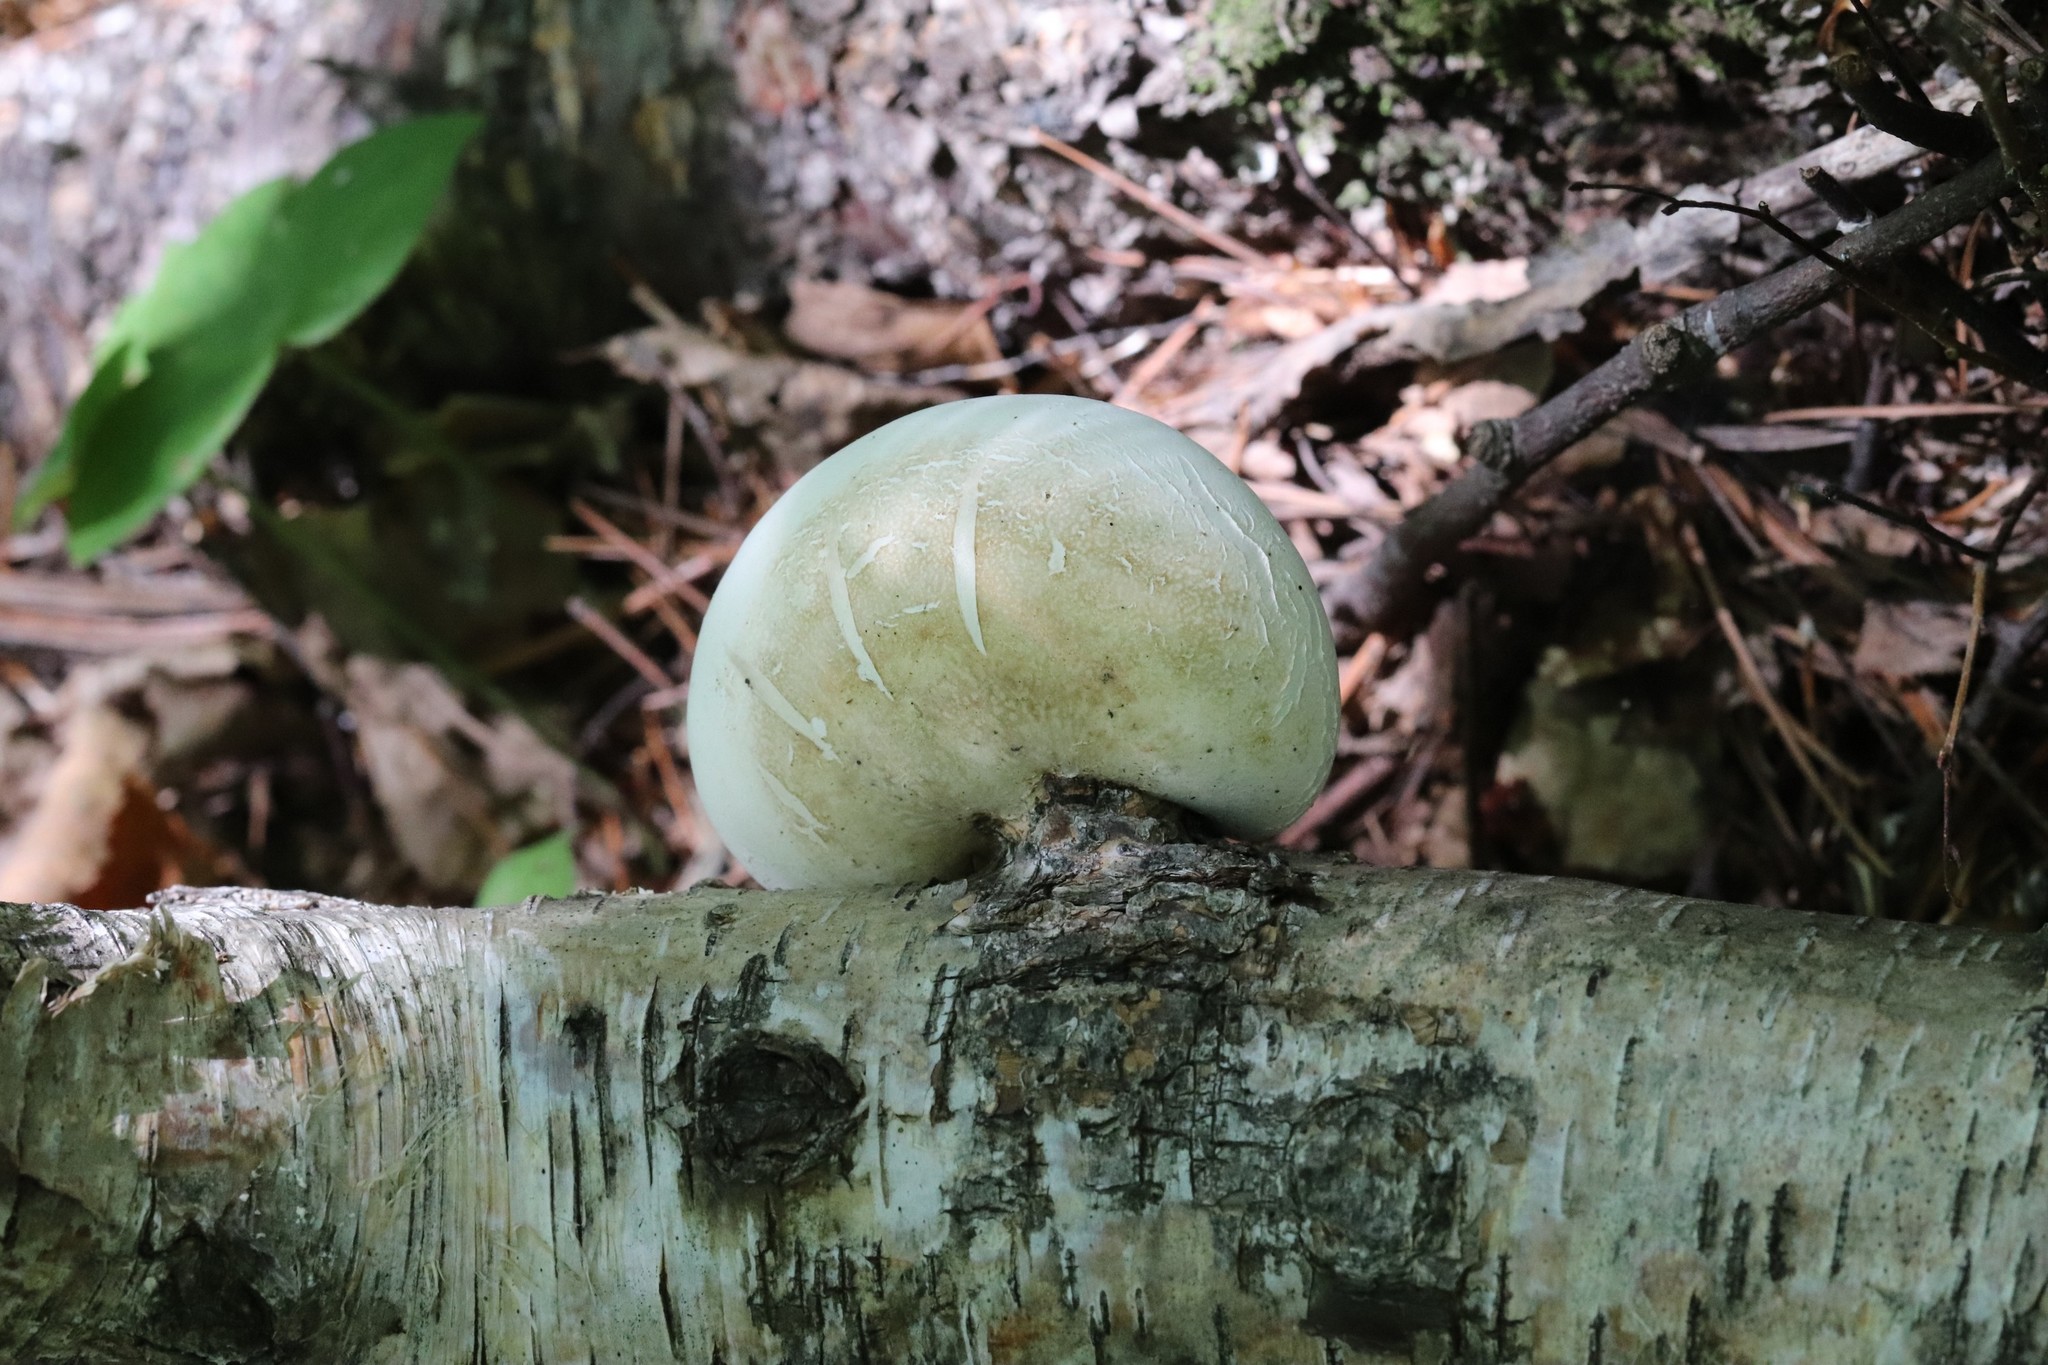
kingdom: Fungi
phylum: Basidiomycota
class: Agaricomycetes
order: Polyporales
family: Fomitopsidaceae
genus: Fomitopsis
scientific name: Fomitopsis betulina
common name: Birch polypore
